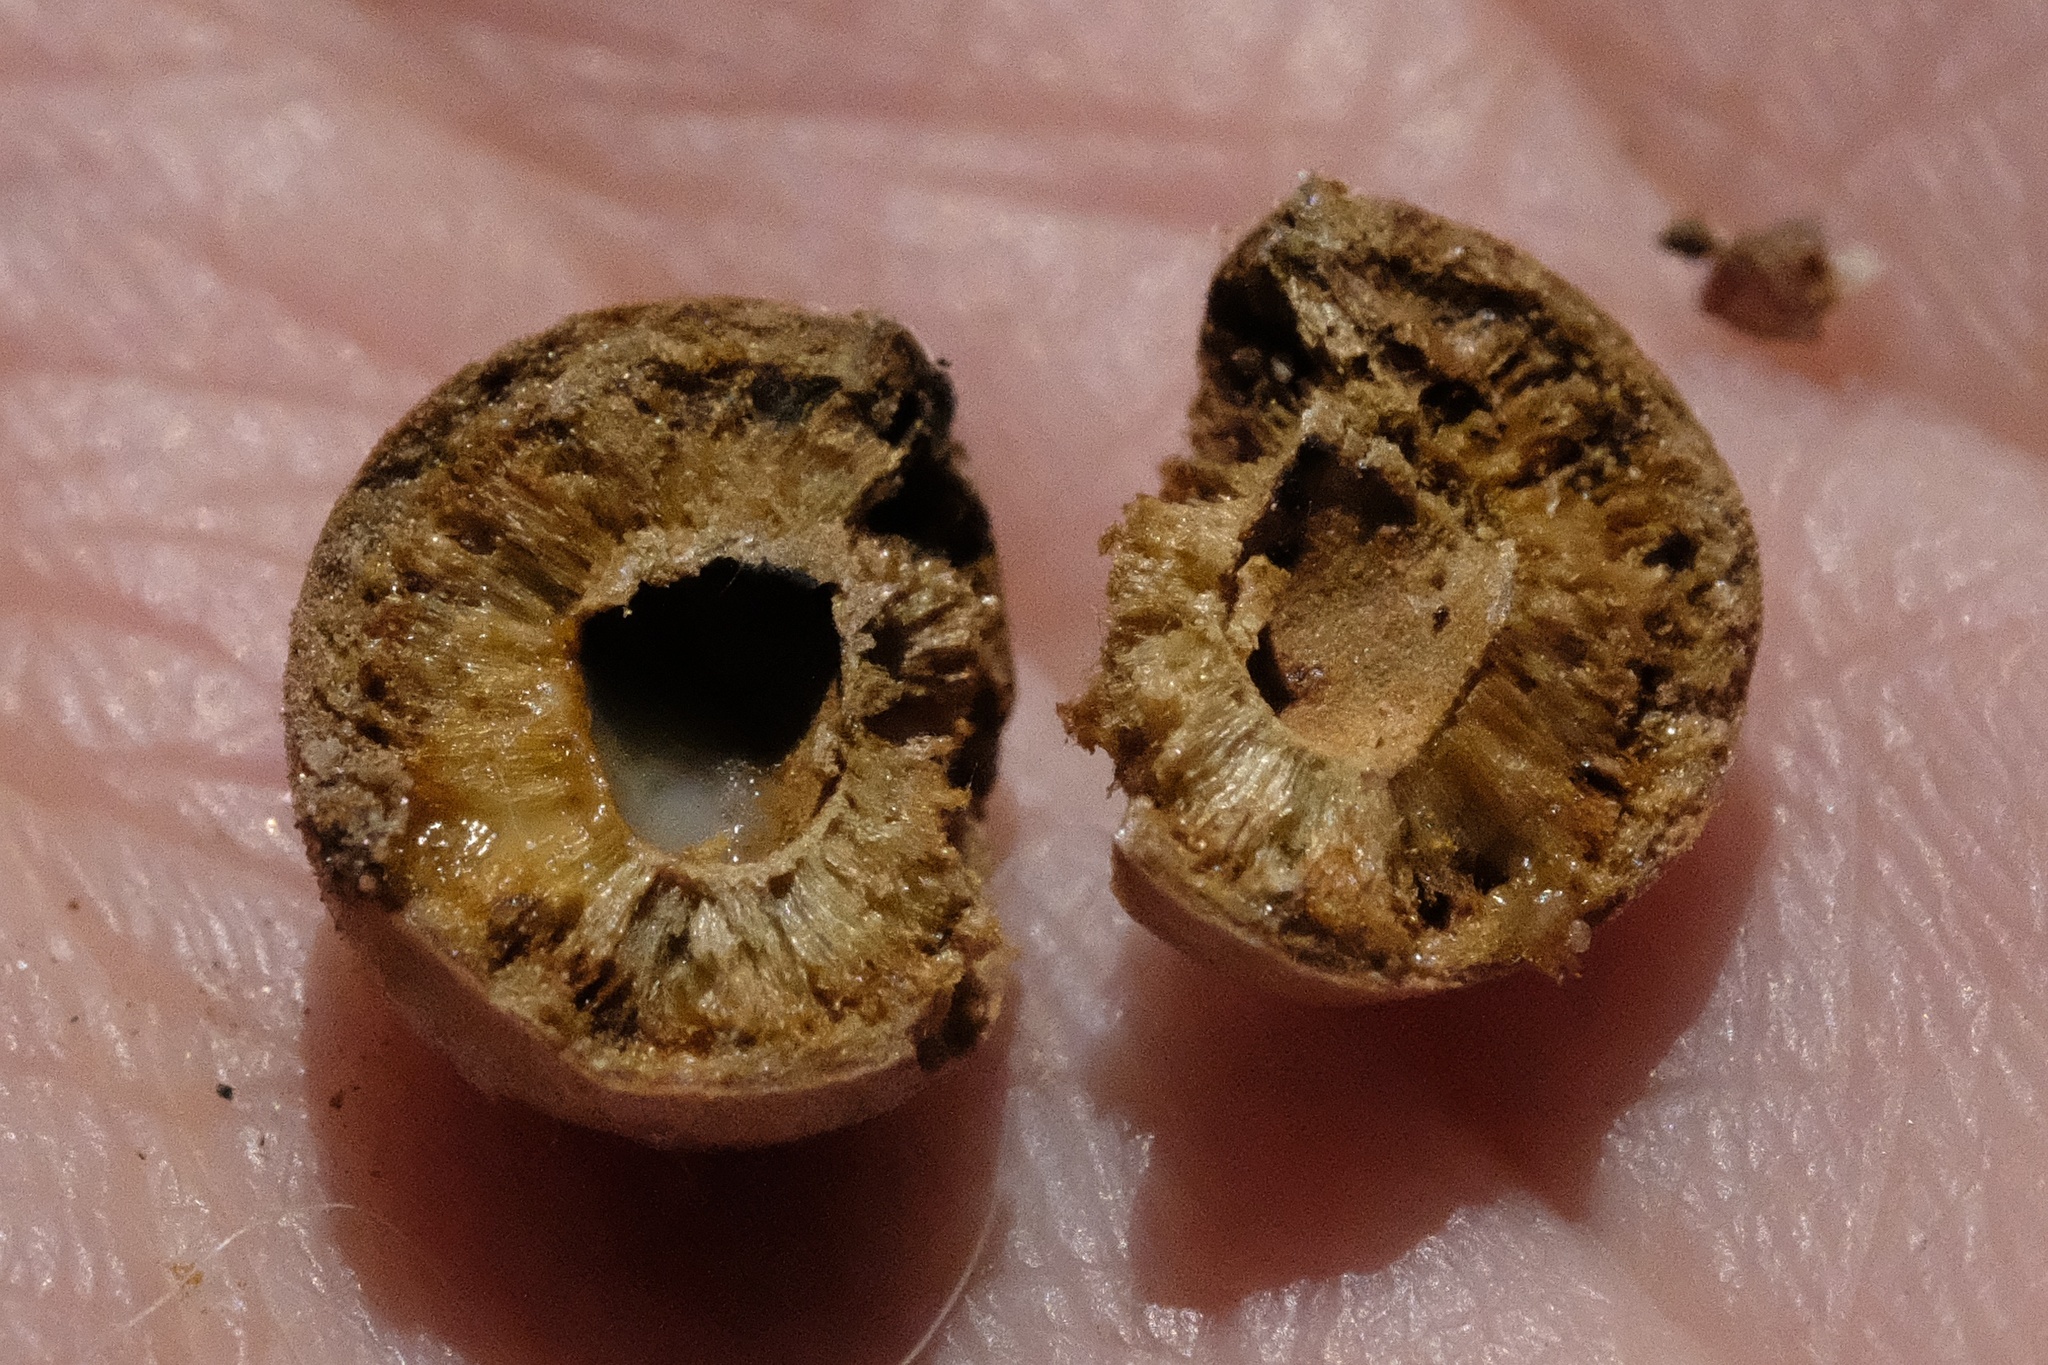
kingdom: Animalia
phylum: Arthropoda
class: Insecta
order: Hymenoptera
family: Cynipidae
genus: Burnettweldia
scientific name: Burnettweldia
